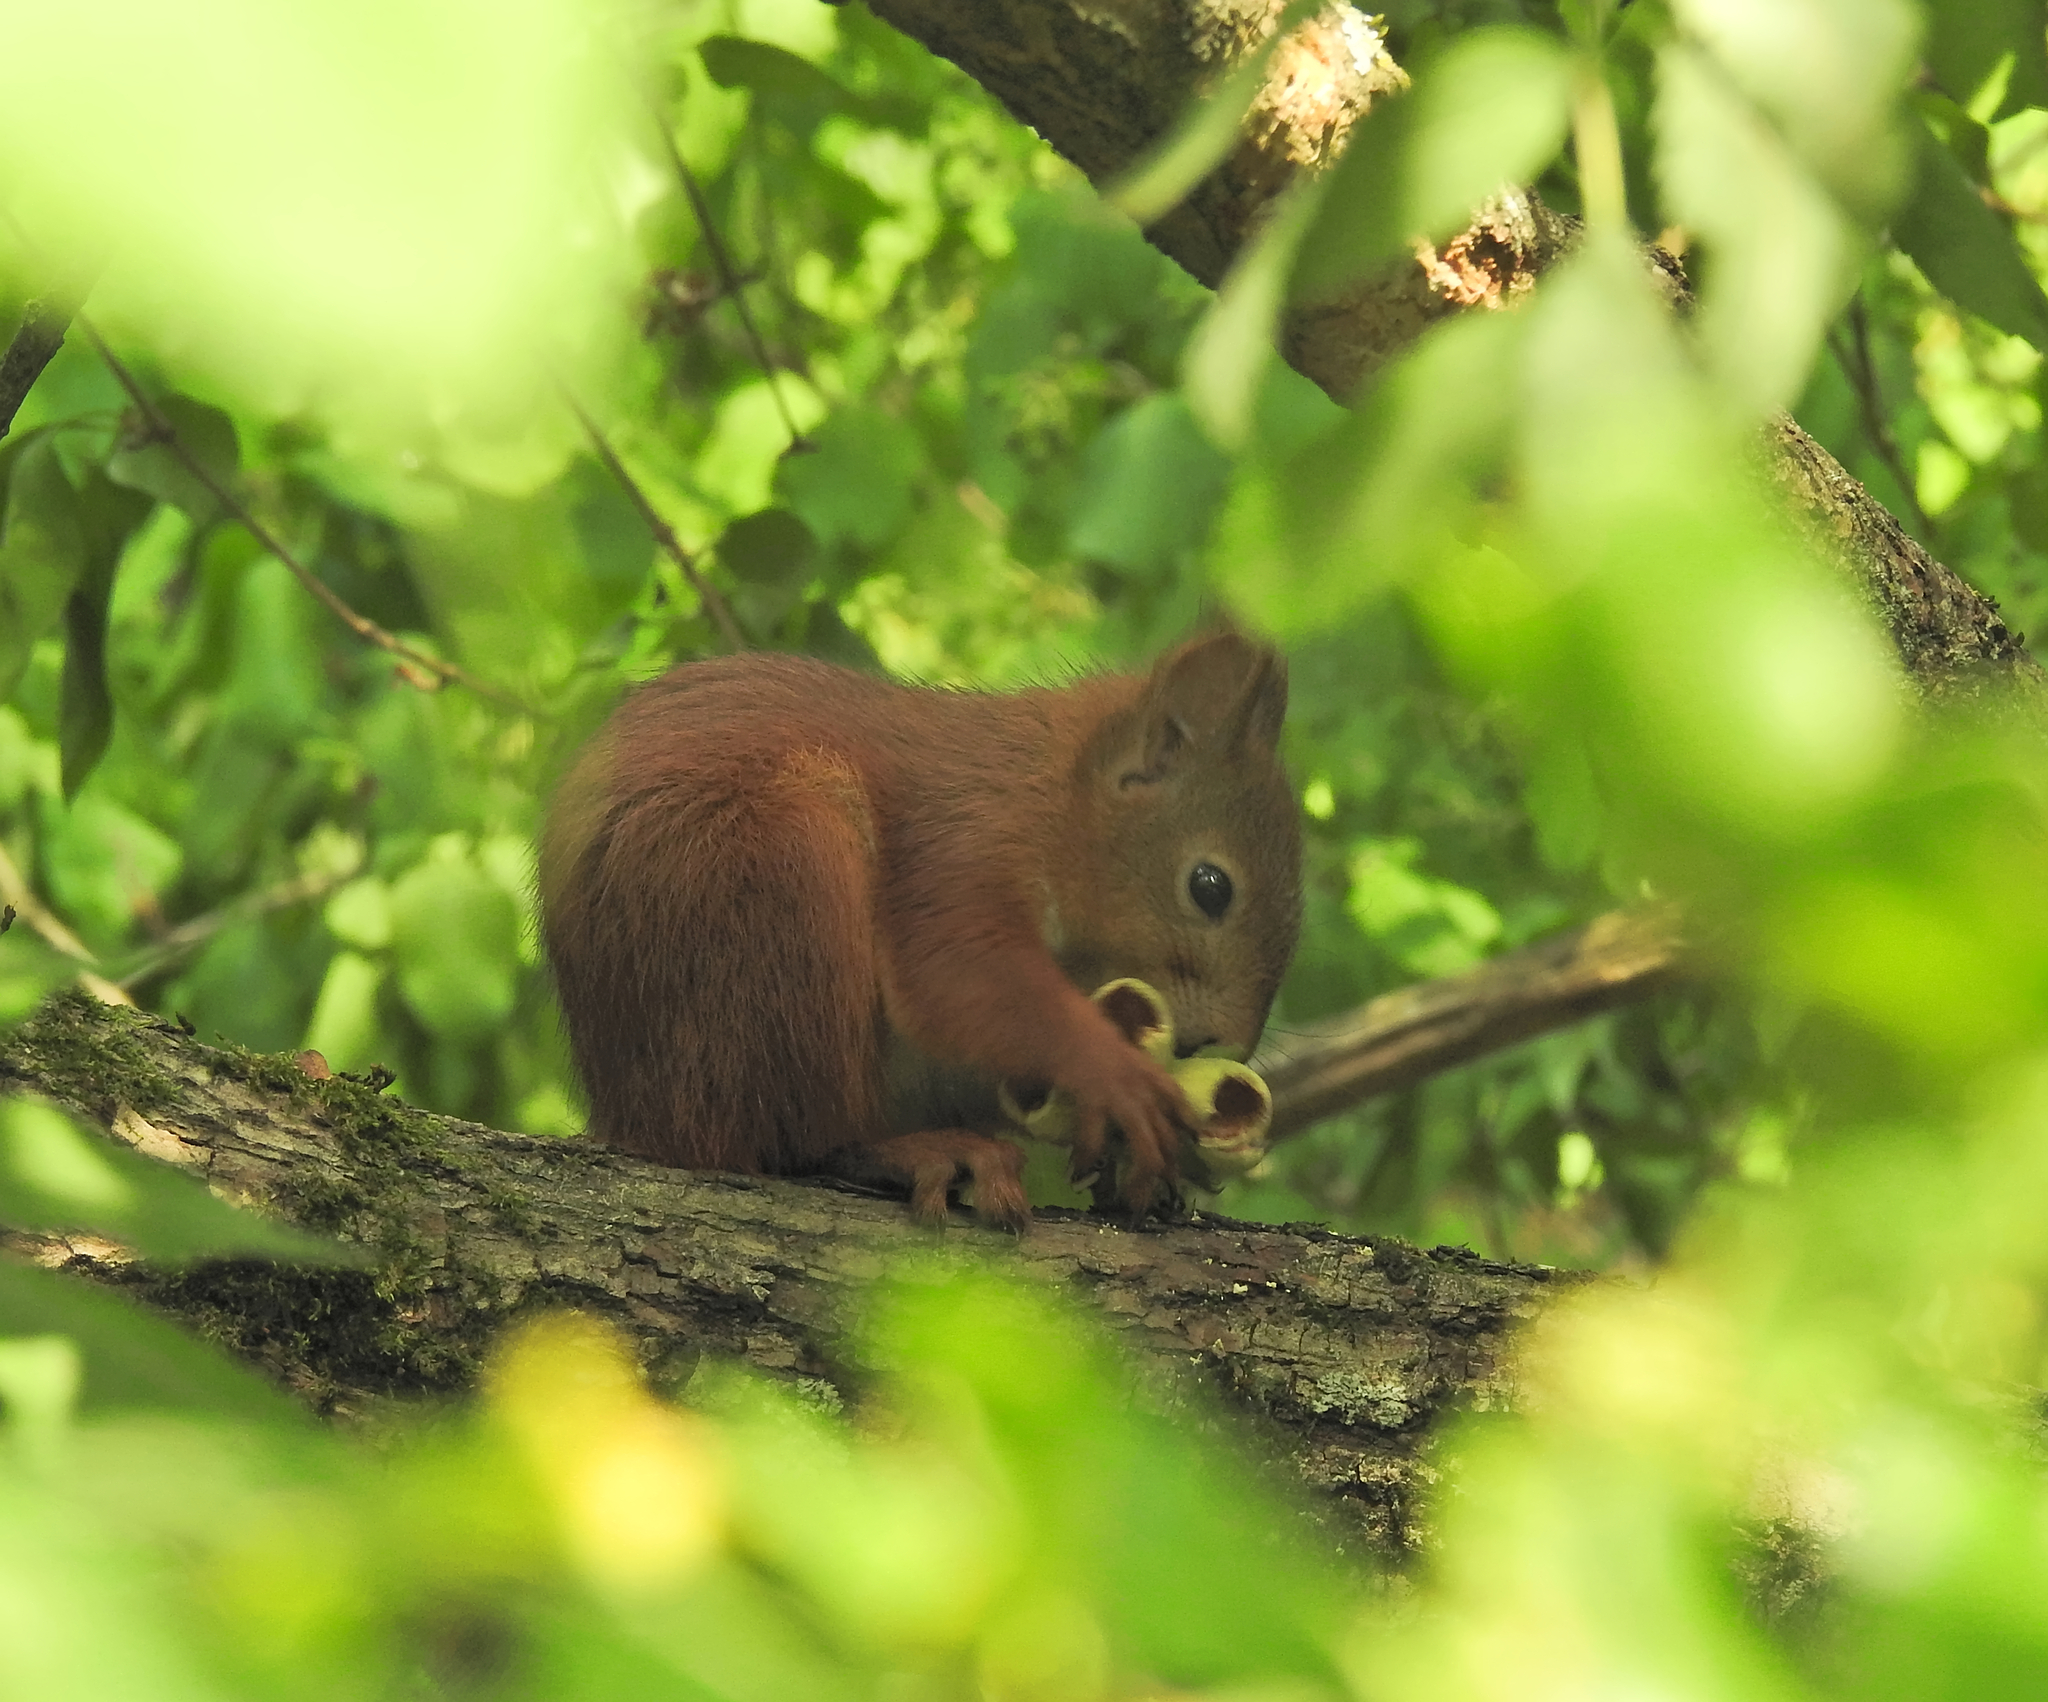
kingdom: Animalia
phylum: Chordata
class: Mammalia
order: Rodentia
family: Sciuridae
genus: Sciurus
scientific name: Sciurus vulgaris
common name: Eurasian red squirrel
